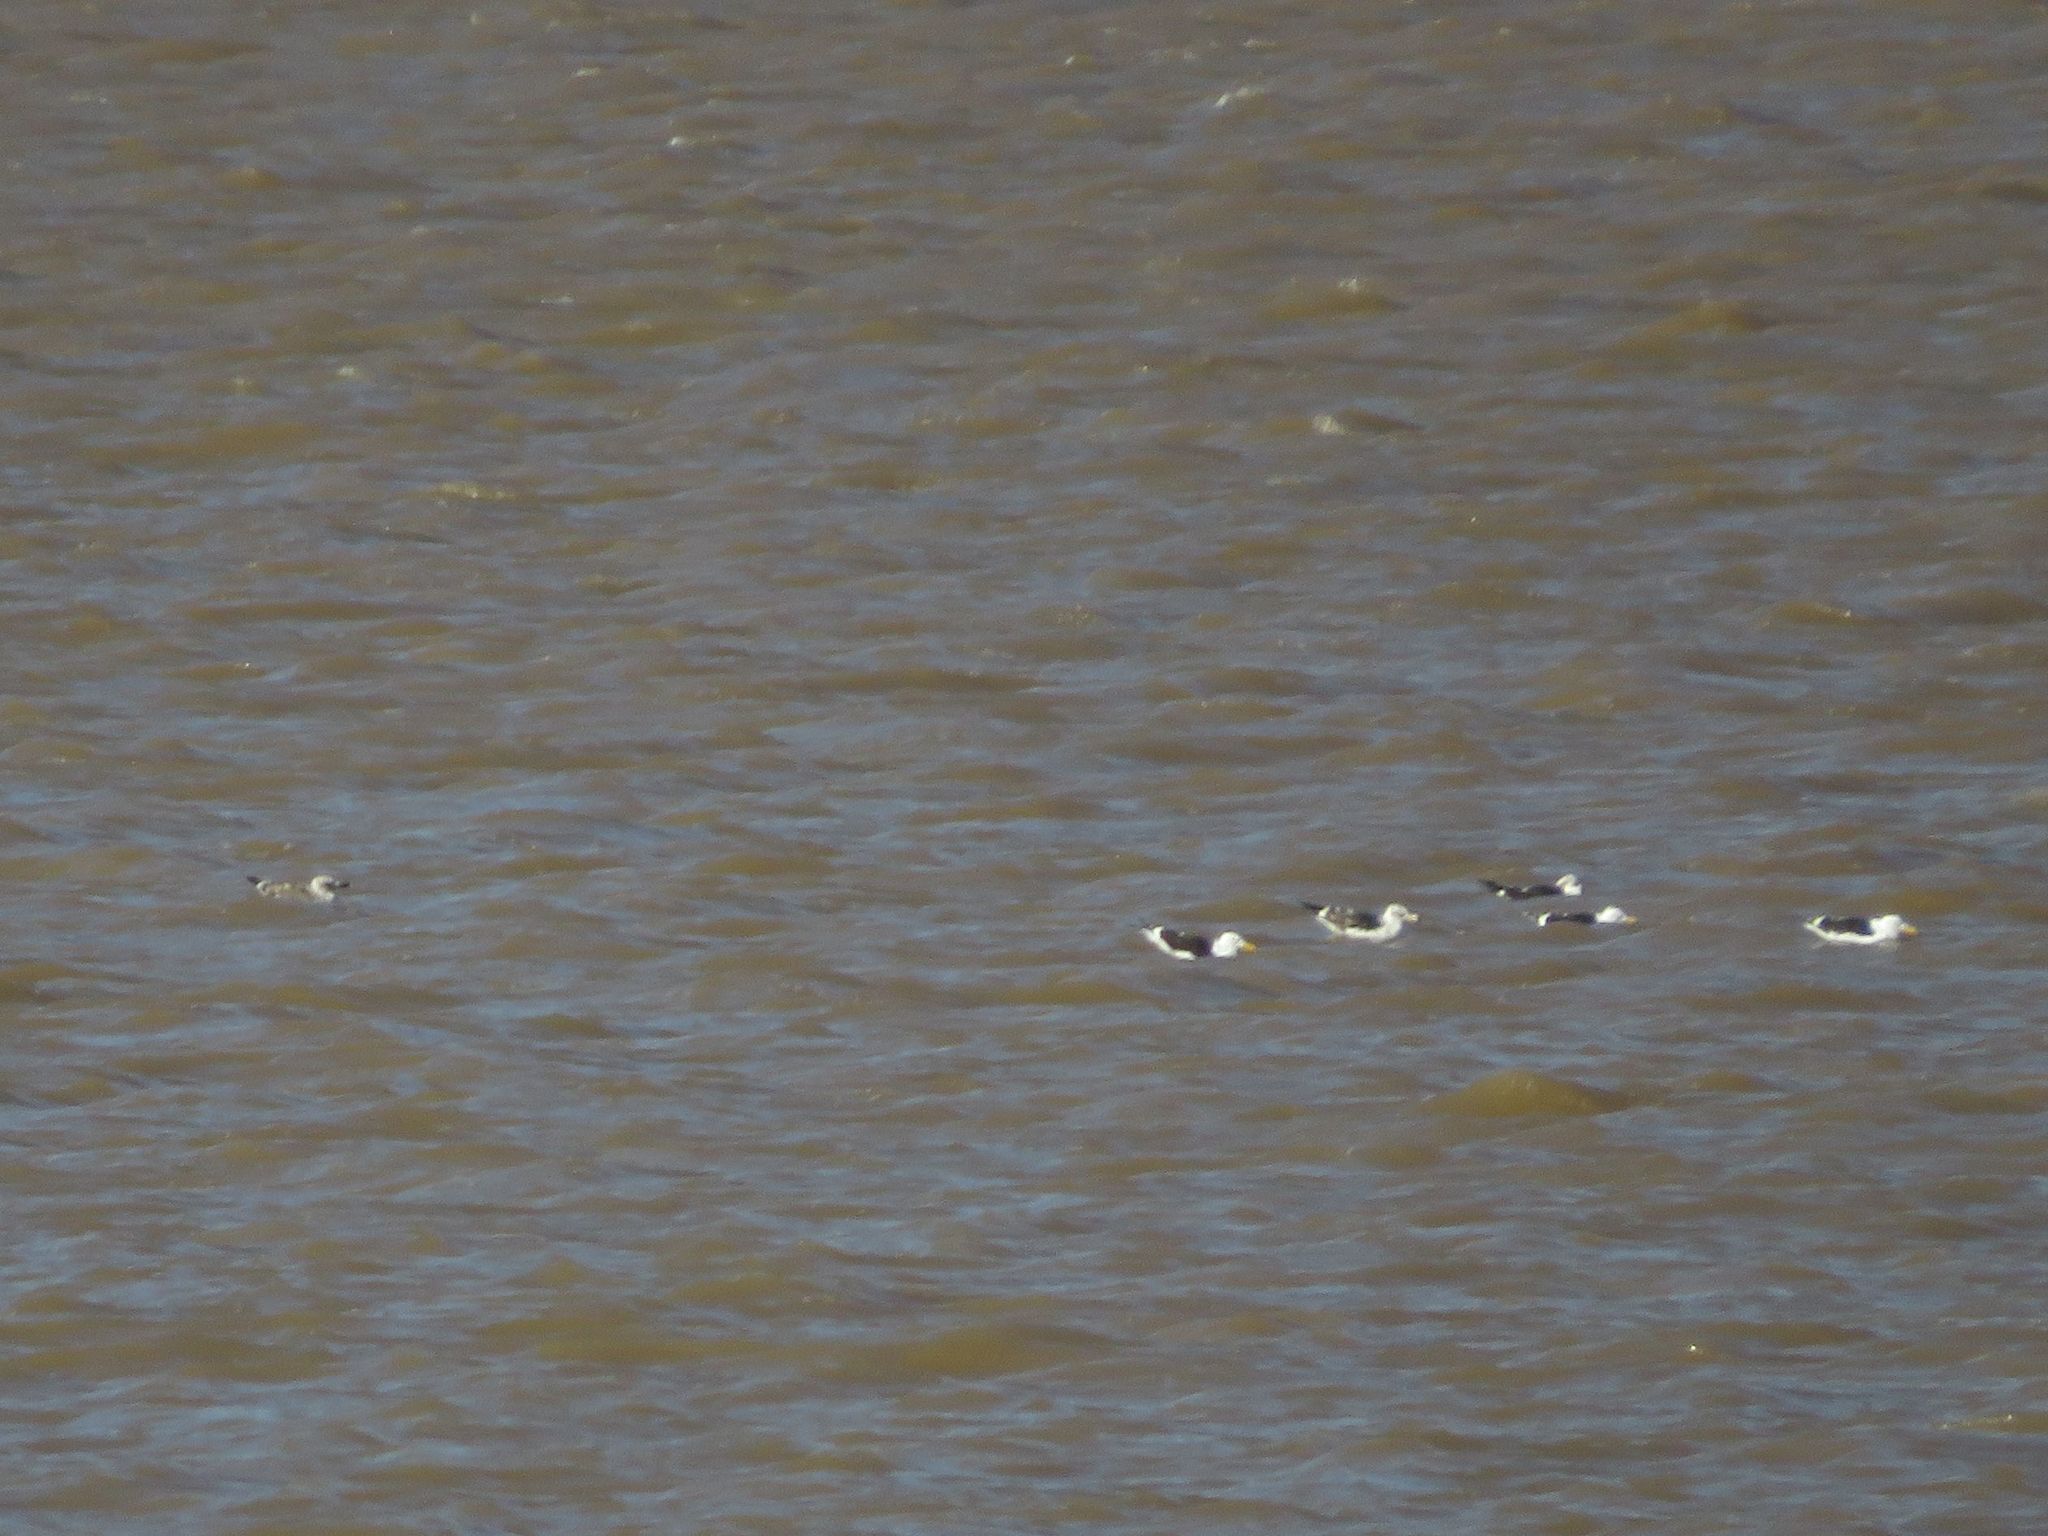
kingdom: Animalia
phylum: Chordata
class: Aves
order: Charadriiformes
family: Laridae
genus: Larus
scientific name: Larus dominicanus
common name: Kelp gull
